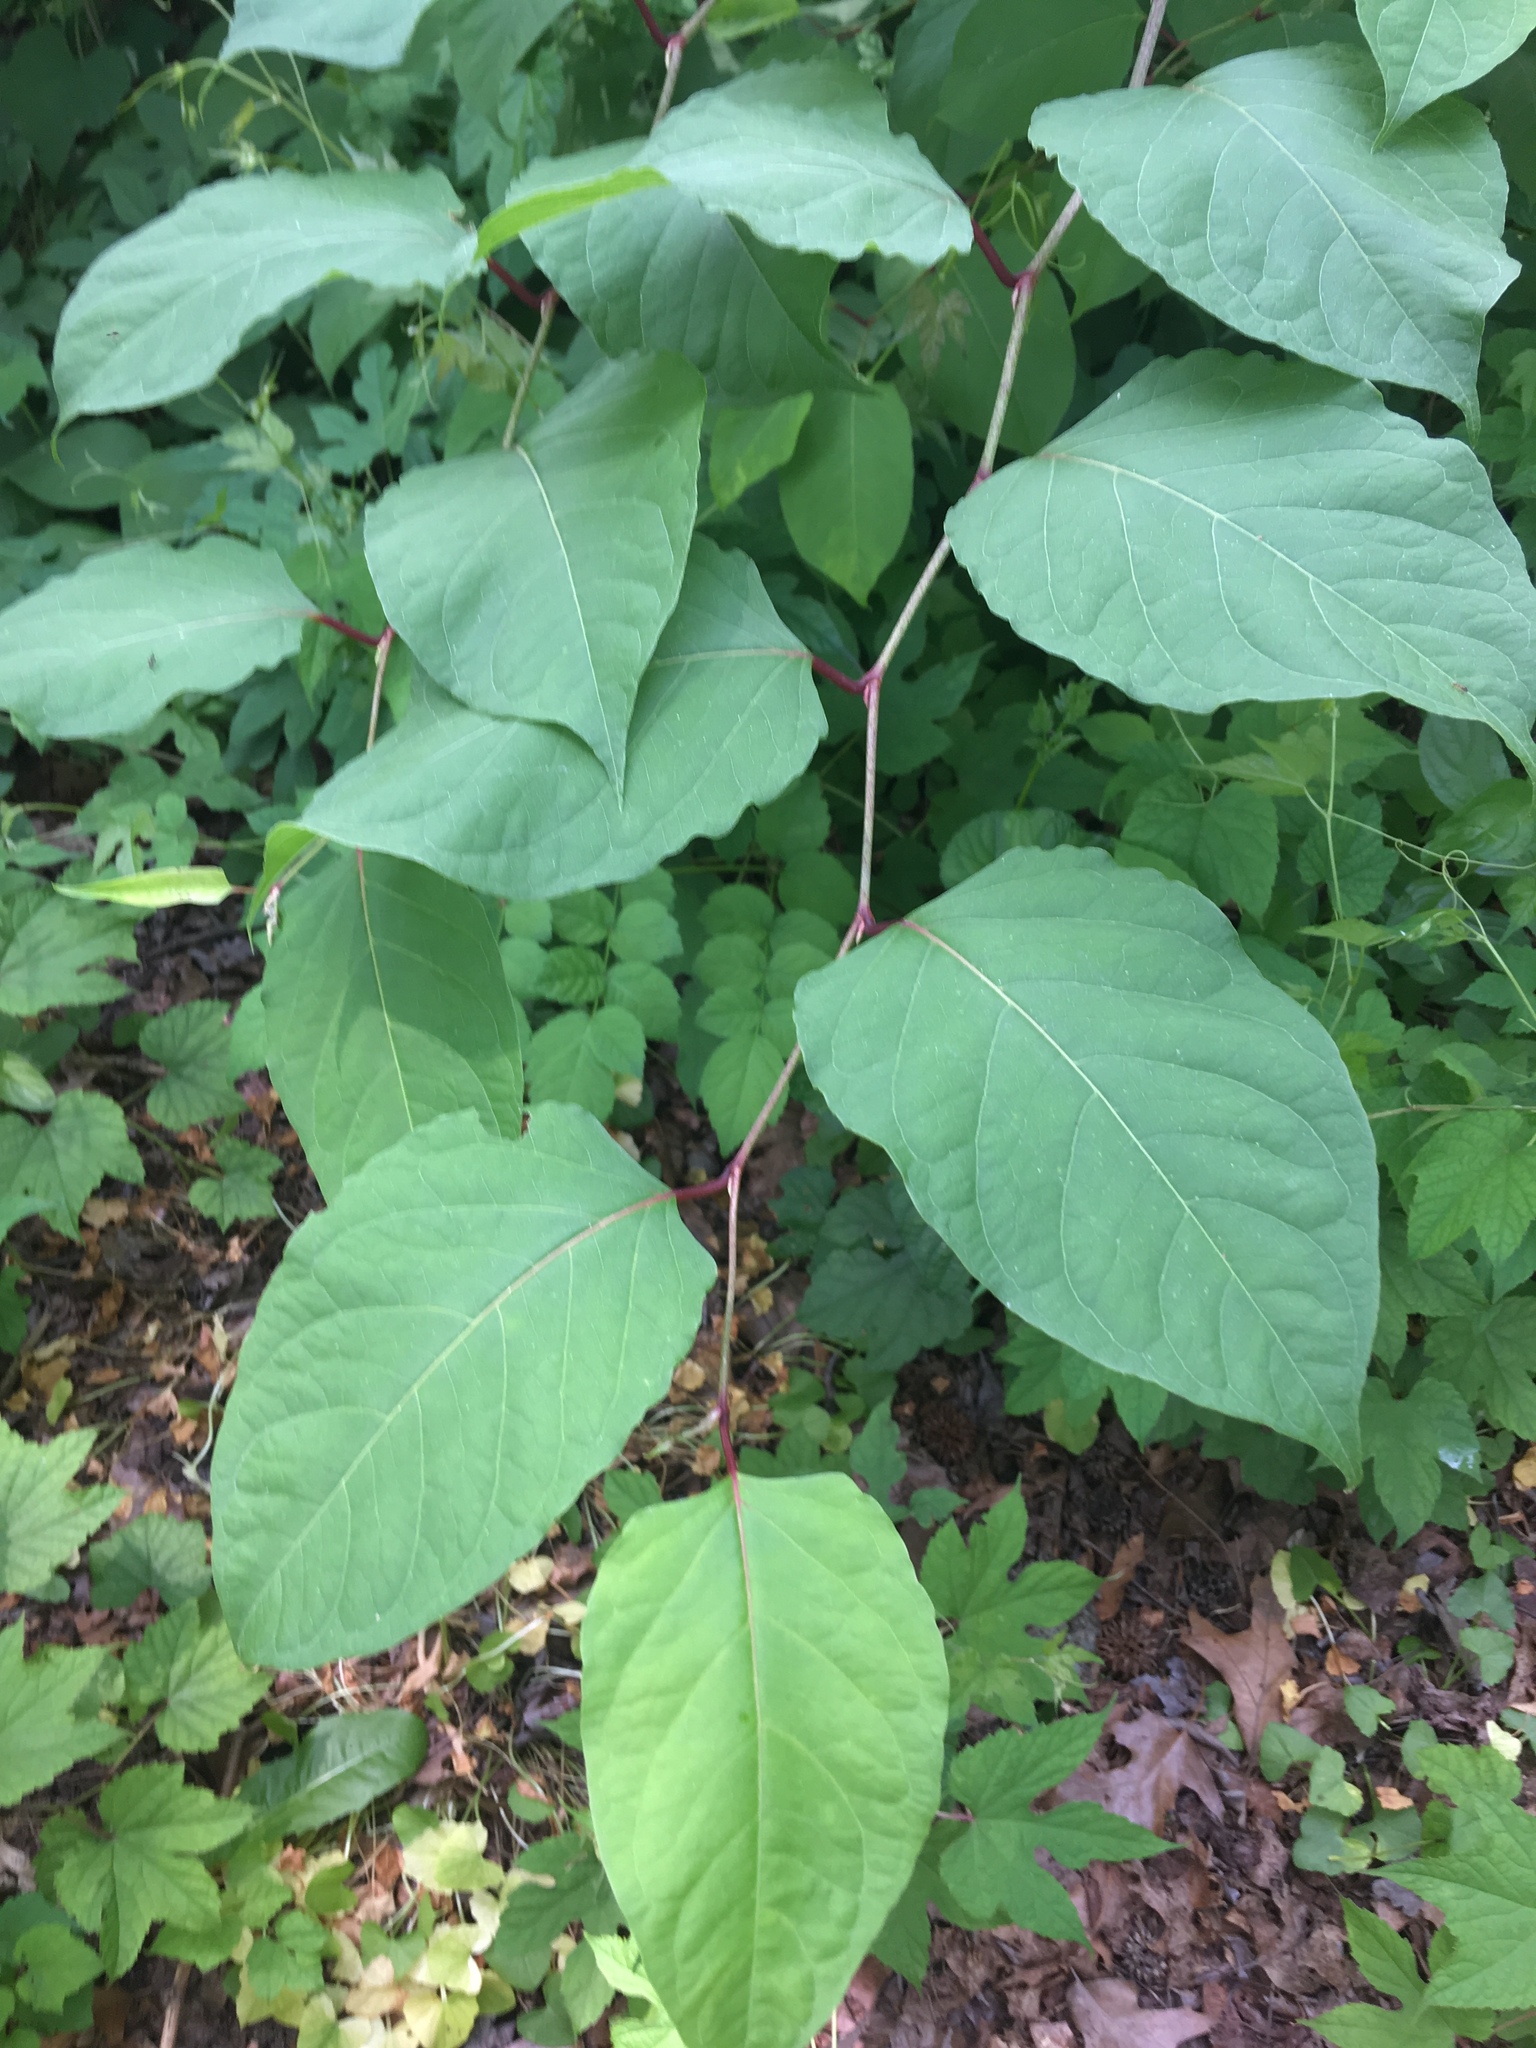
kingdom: Plantae
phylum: Tracheophyta
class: Magnoliopsida
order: Caryophyllales
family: Polygonaceae
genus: Reynoutria
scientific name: Reynoutria japonica
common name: Japanese knotweed
